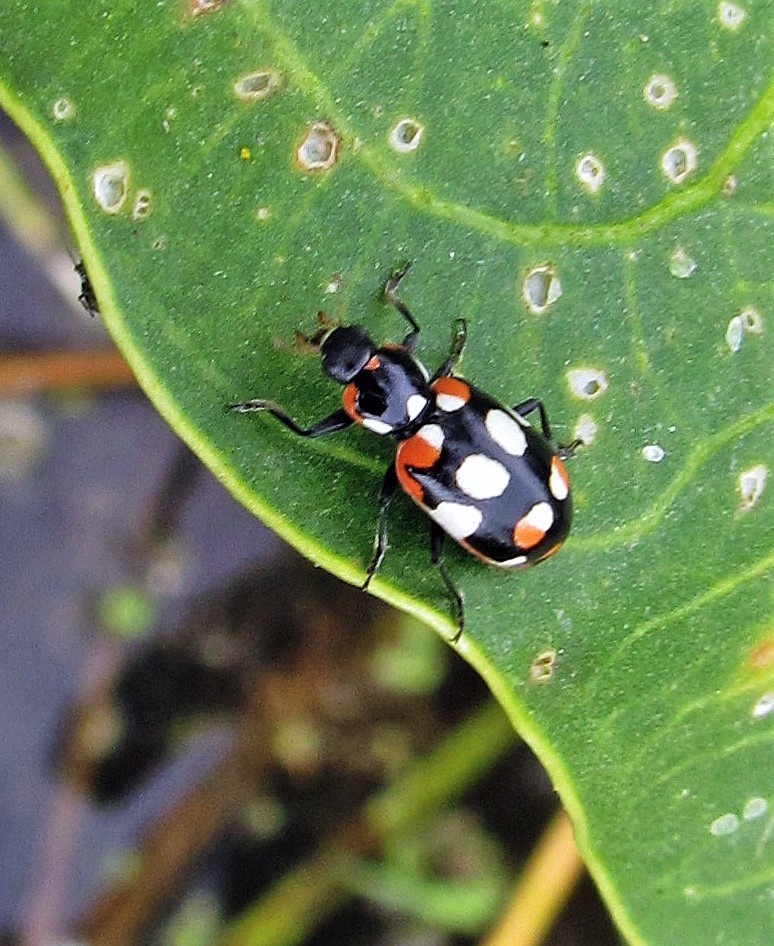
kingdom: Animalia
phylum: Arthropoda
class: Insecta
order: Coleoptera
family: Coccinellidae
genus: Eriopis
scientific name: Eriopis connexa
